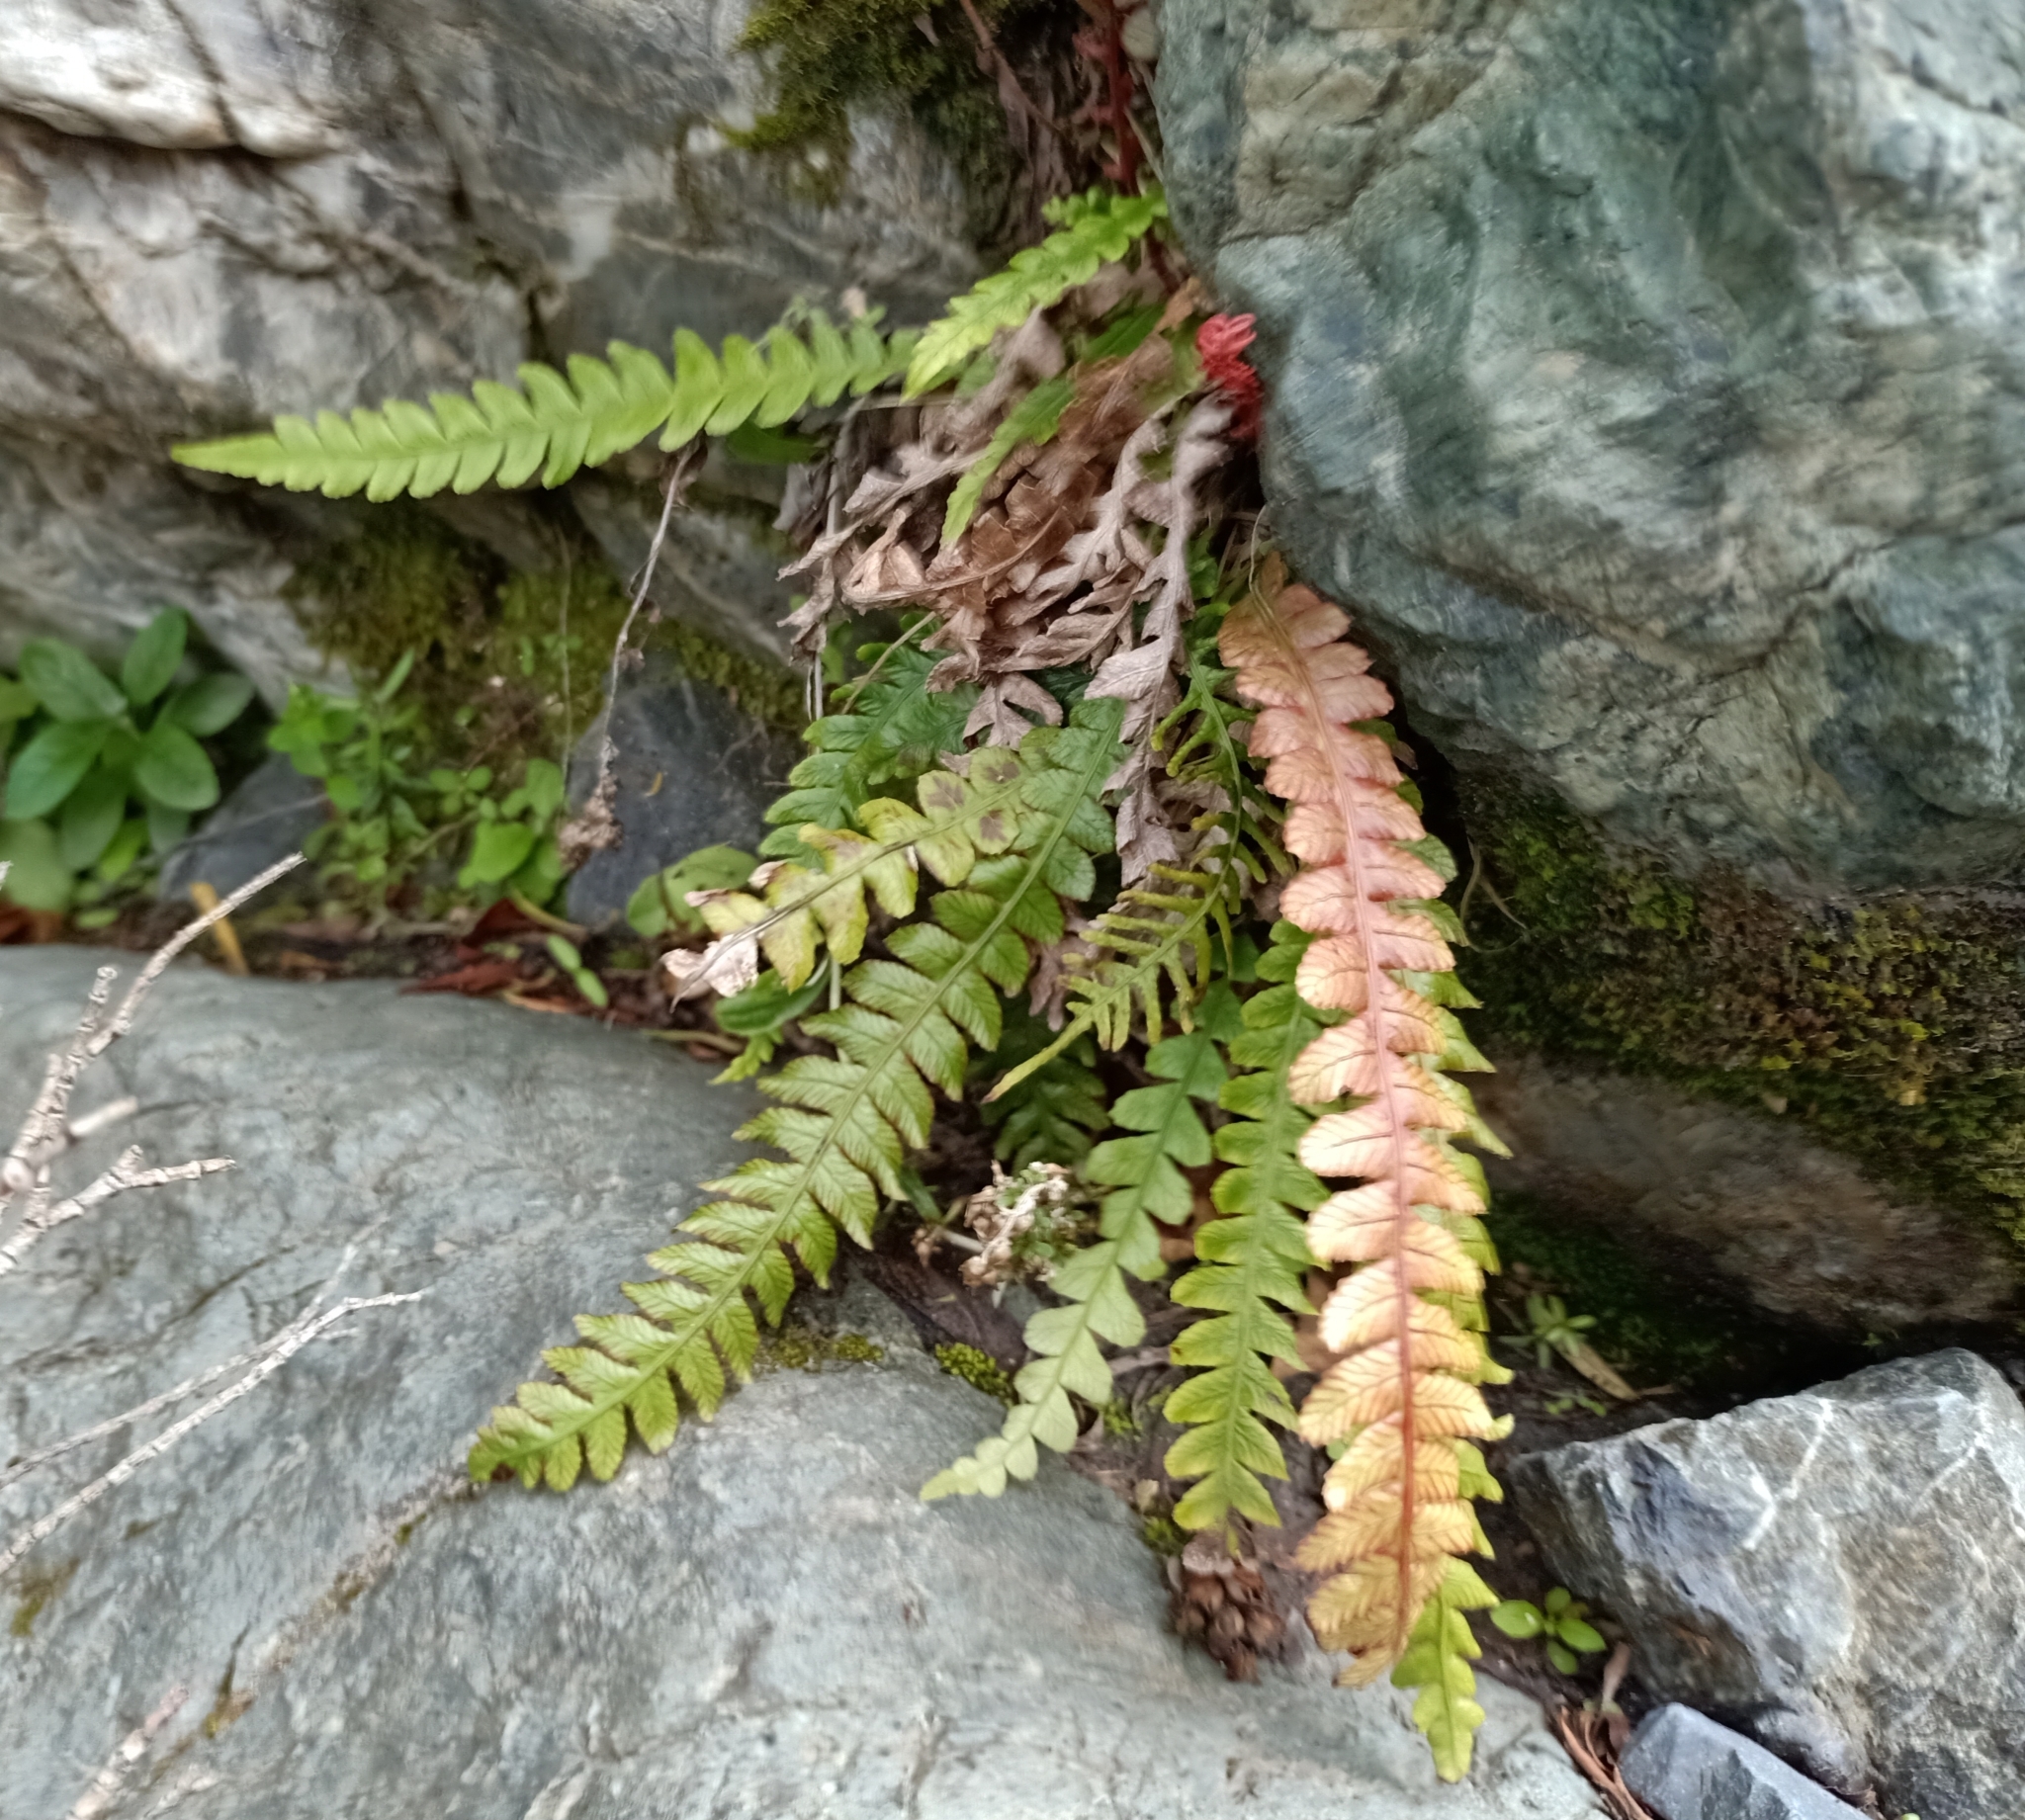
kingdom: Plantae
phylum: Tracheophyta
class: Polypodiopsida
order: Polypodiales
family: Blechnaceae
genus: Austroblechnum
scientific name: Austroblechnum lanceolatum
